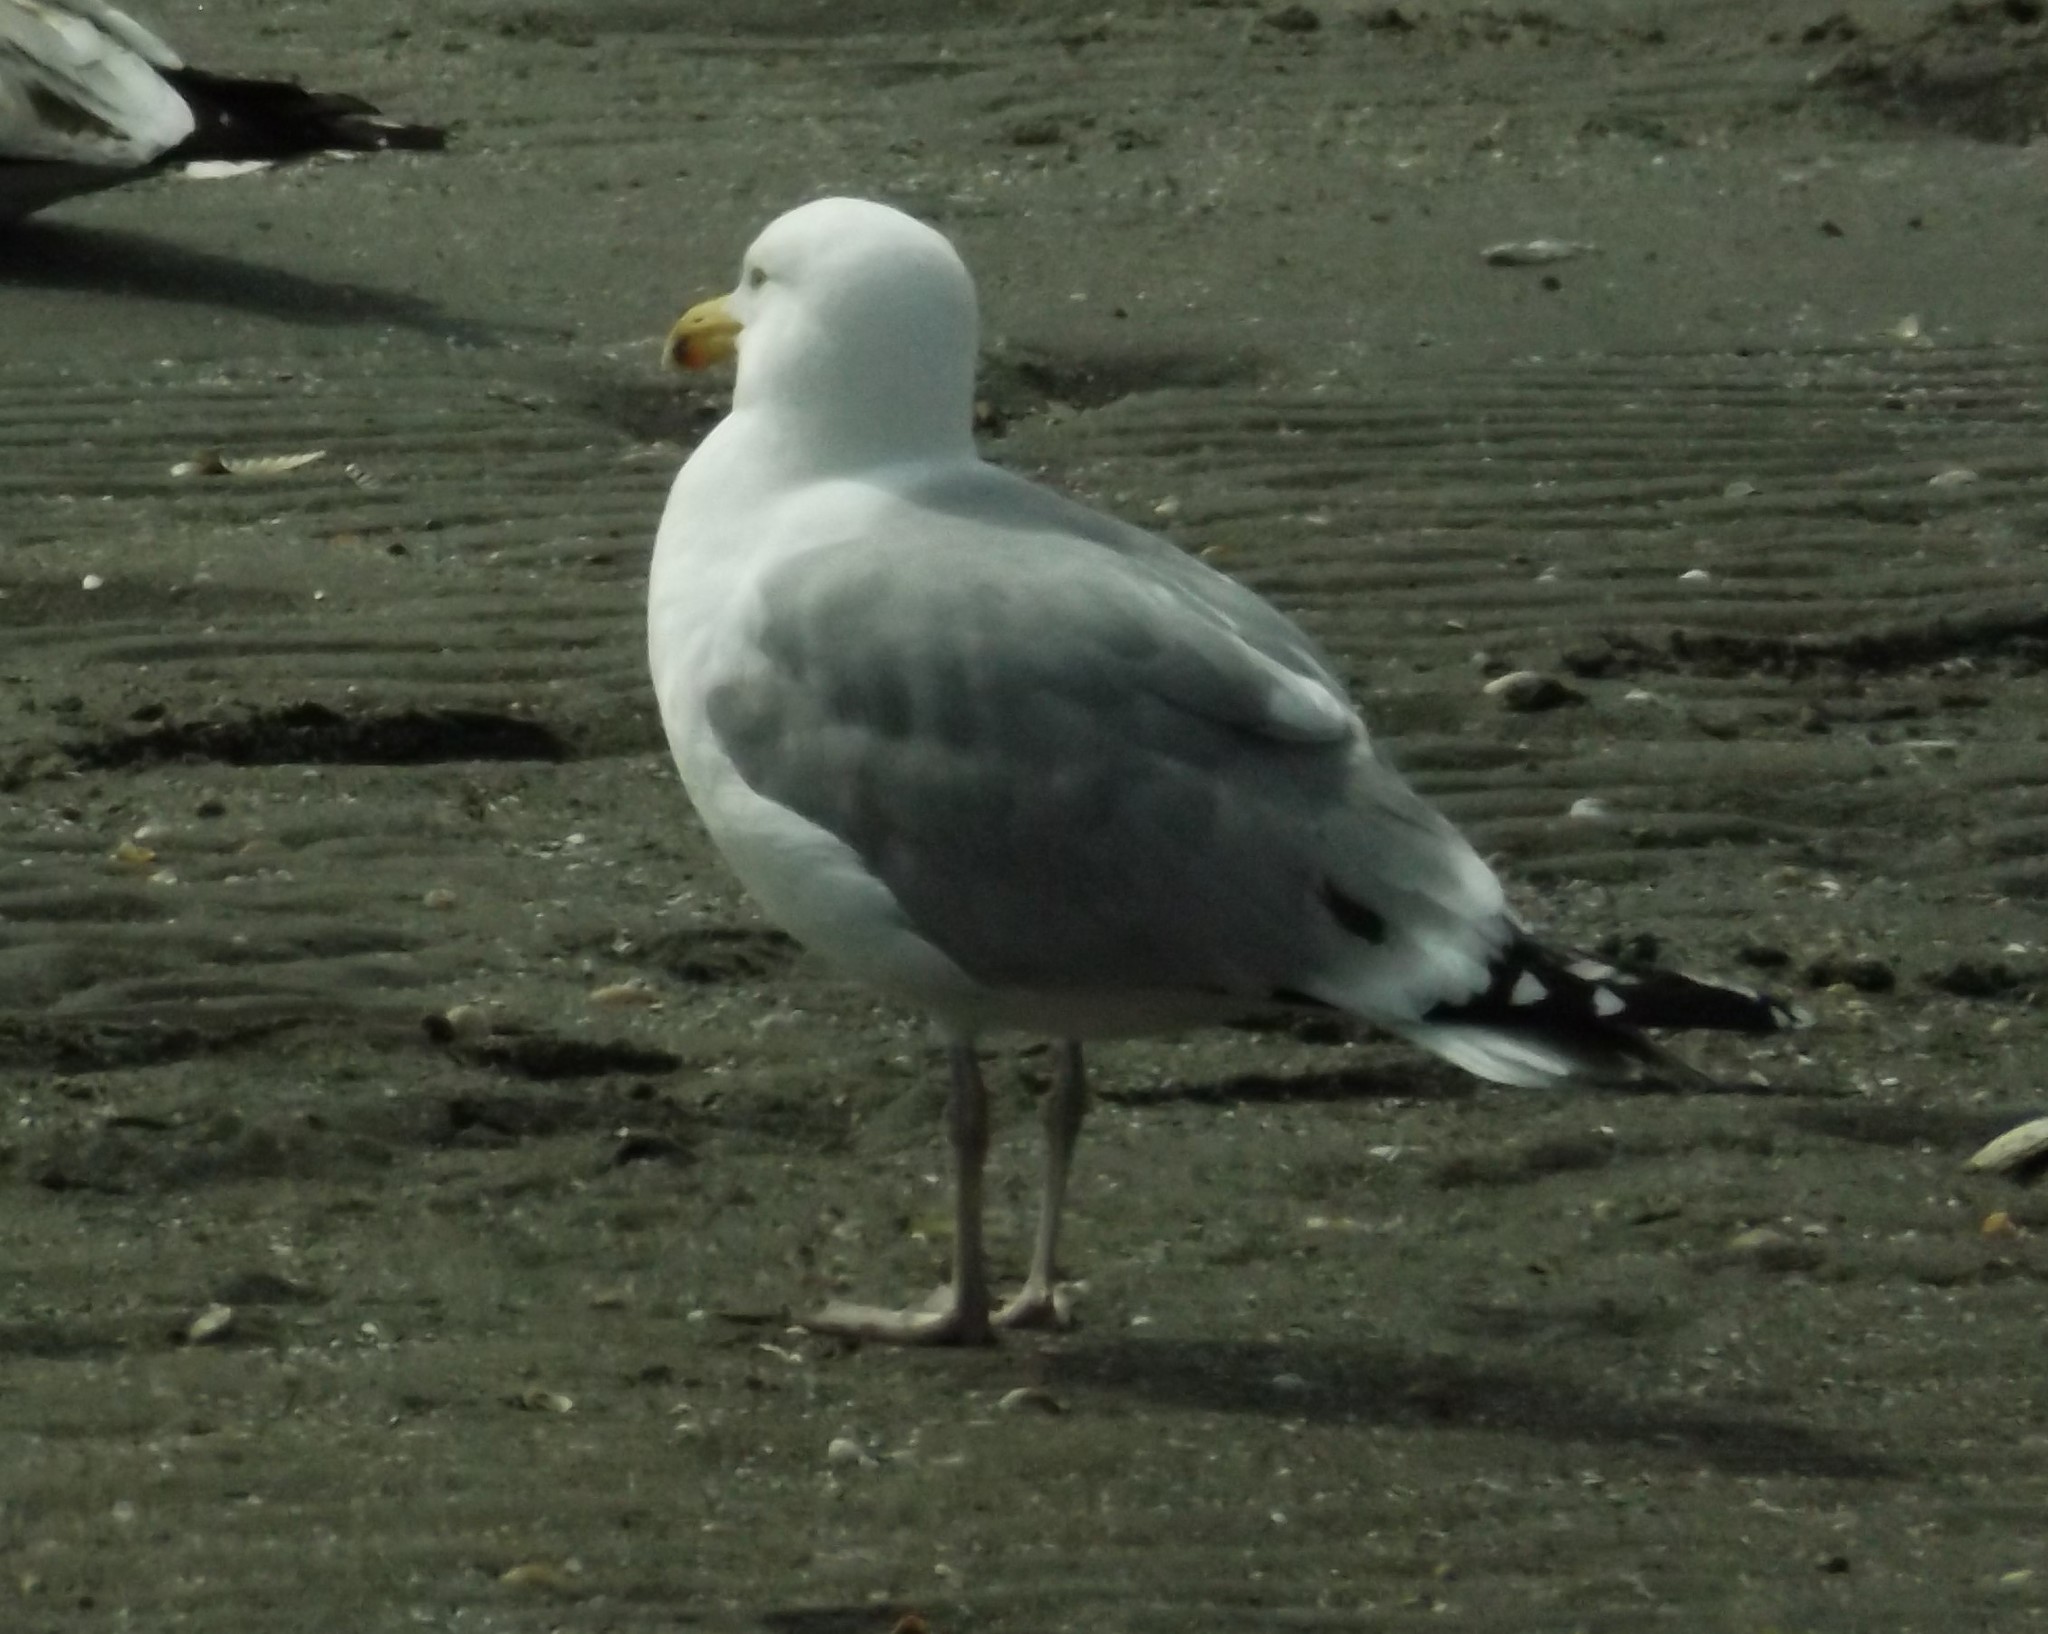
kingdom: Animalia
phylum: Chordata
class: Aves
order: Charadriiformes
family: Laridae
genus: Larus
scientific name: Larus argentatus
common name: Herring gull
